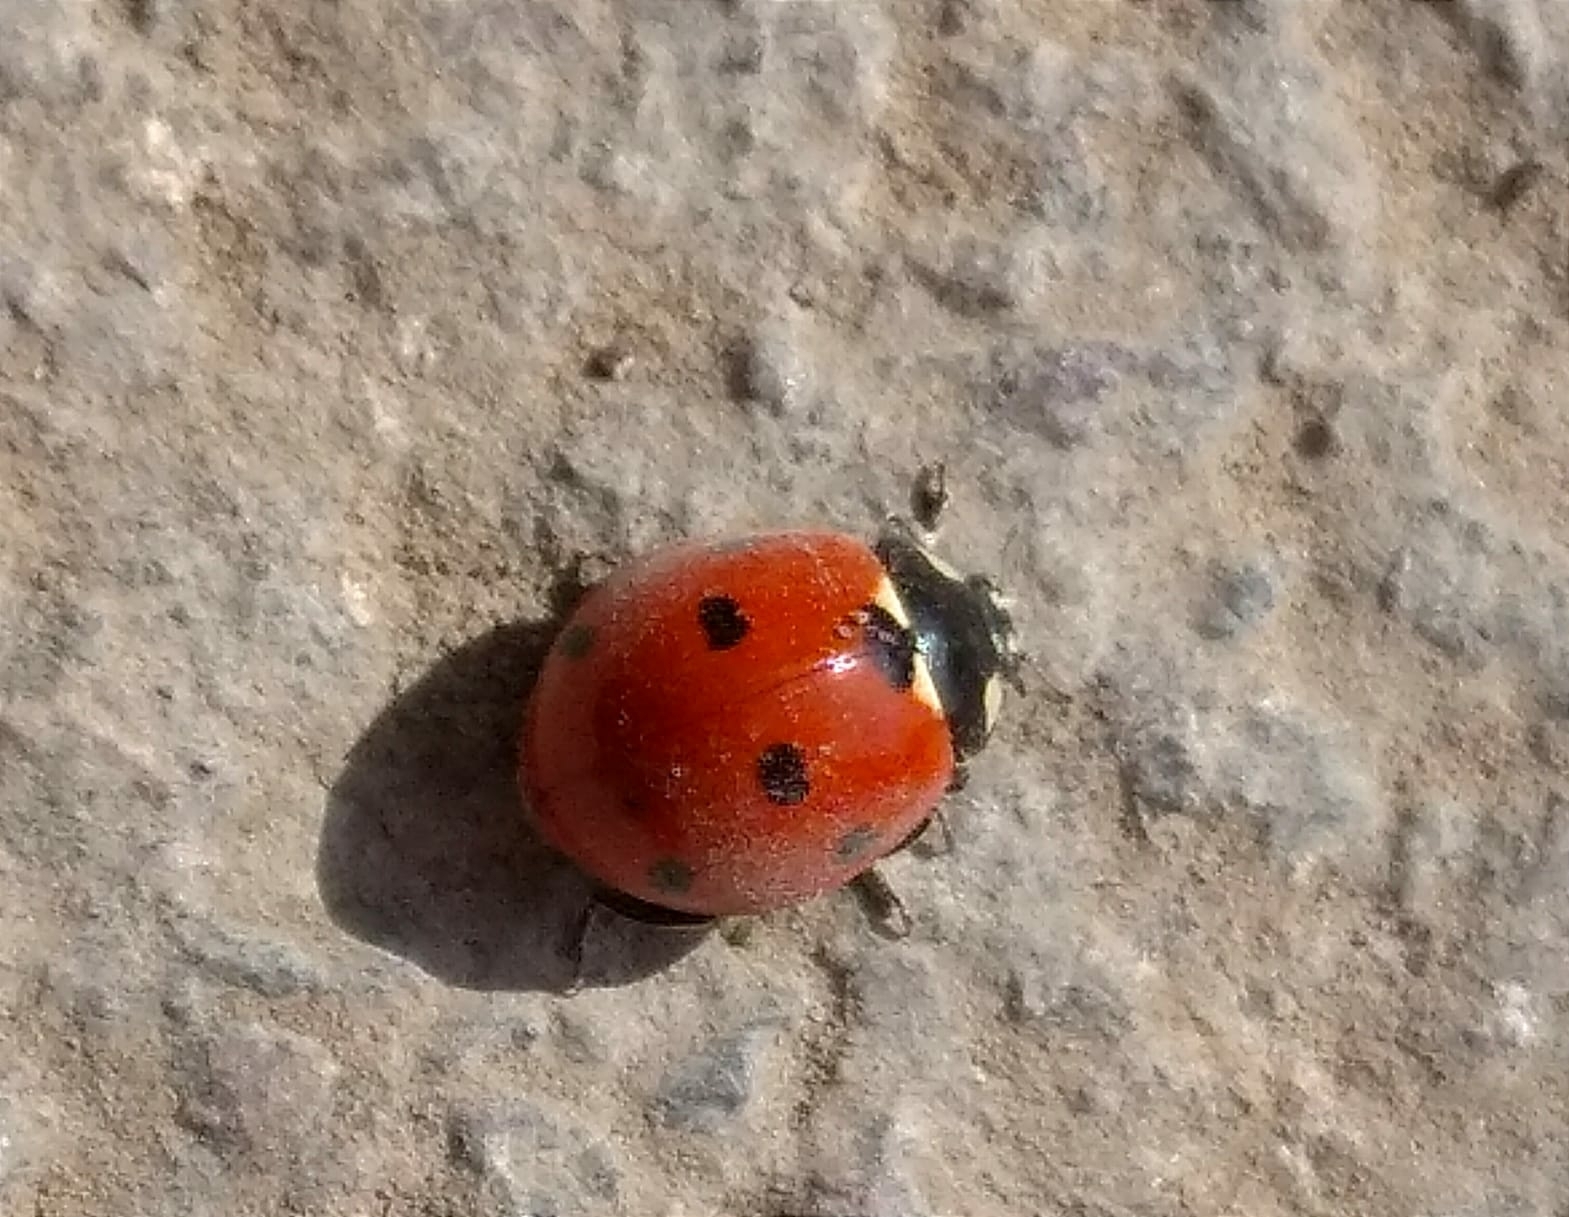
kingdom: Animalia
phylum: Arthropoda
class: Insecta
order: Coleoptera
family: Coccinellidae
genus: Coccinella
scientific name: Coccinella septempunctata
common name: Sevenspotted lady beetle
